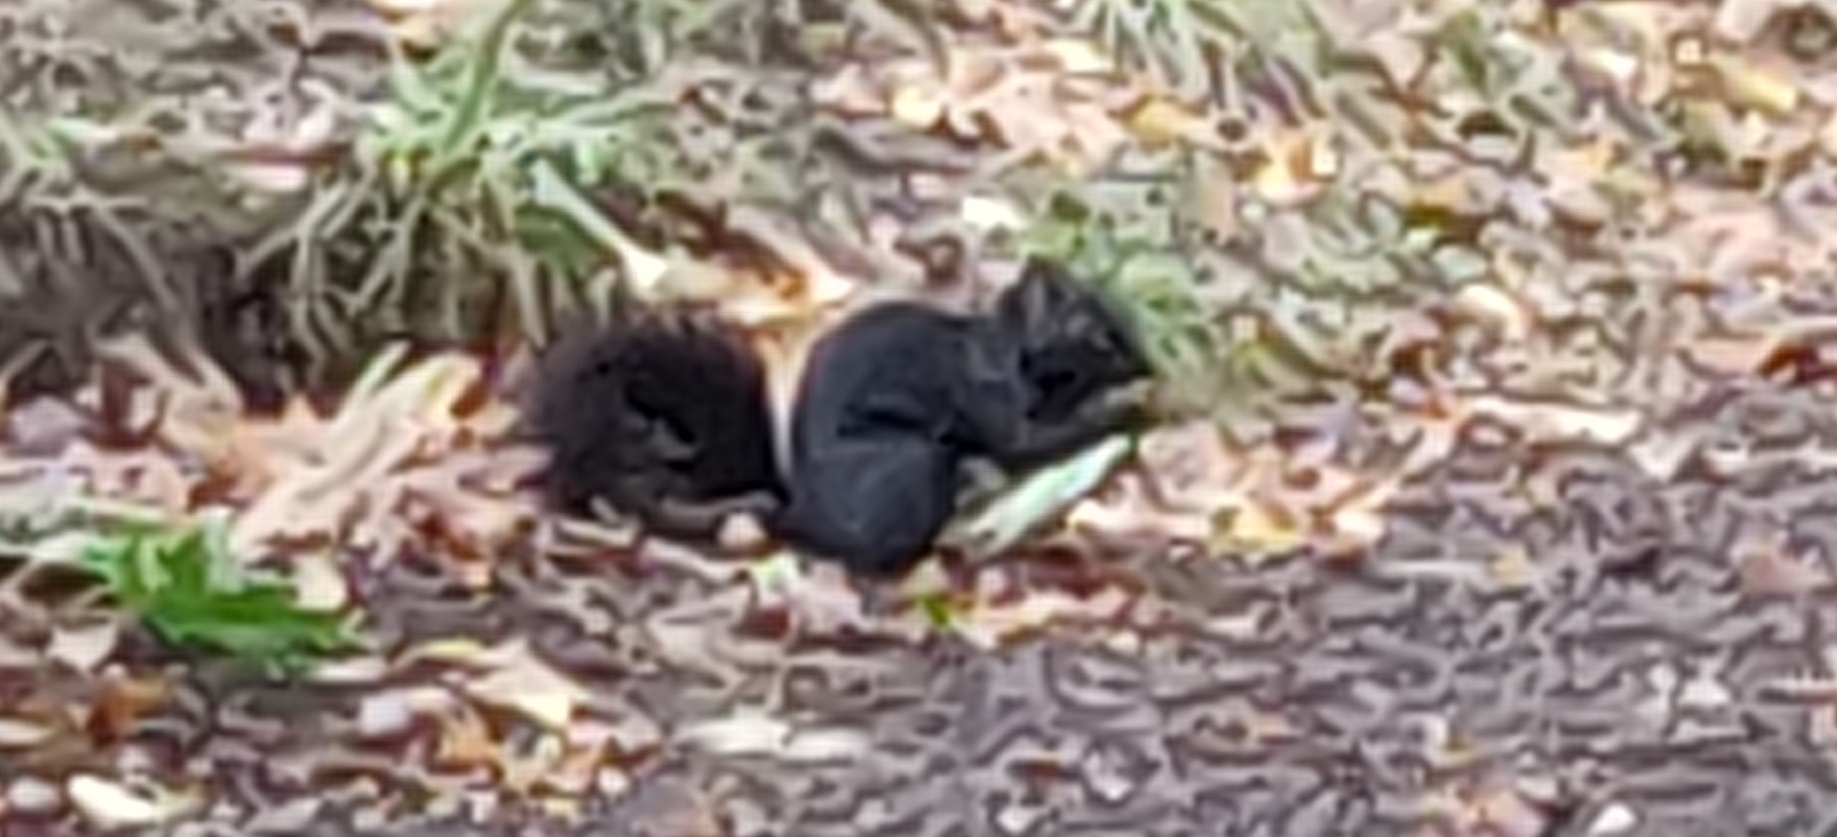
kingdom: Animalia
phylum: Chordata
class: Mammalia
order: Rodentia
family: Sciuridae
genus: Sciurus
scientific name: Sciurus carolinensis
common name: Eastern gray squirrel
